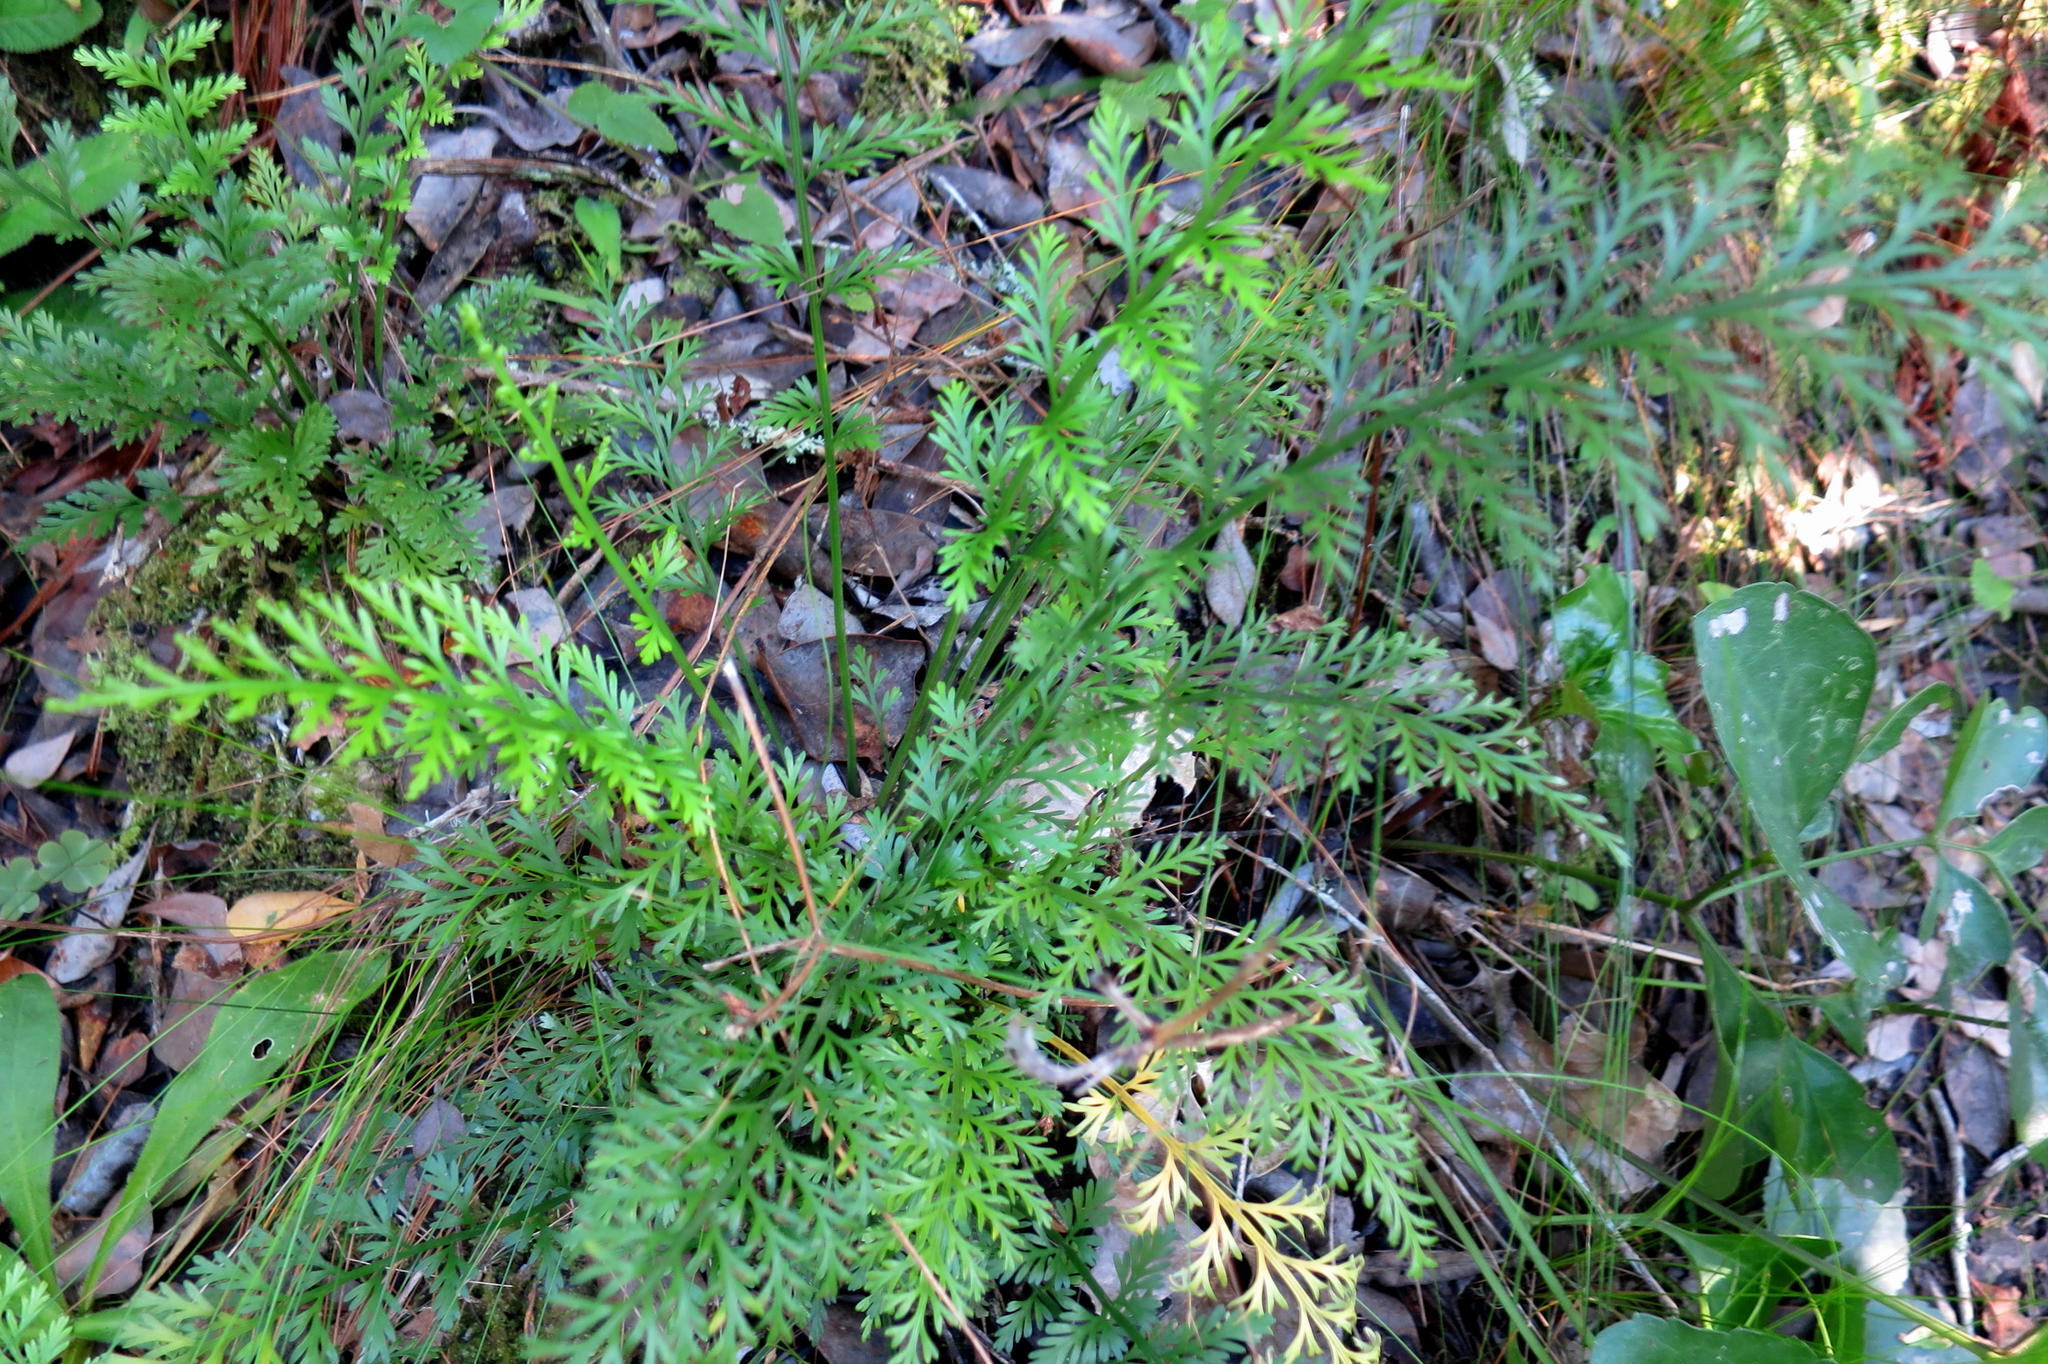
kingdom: Plantae
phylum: Tracheophyta
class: Polypodiopsida
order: Polypodiales
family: Aspleniaceae
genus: Asplenium
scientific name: Asplenium rutifolium
